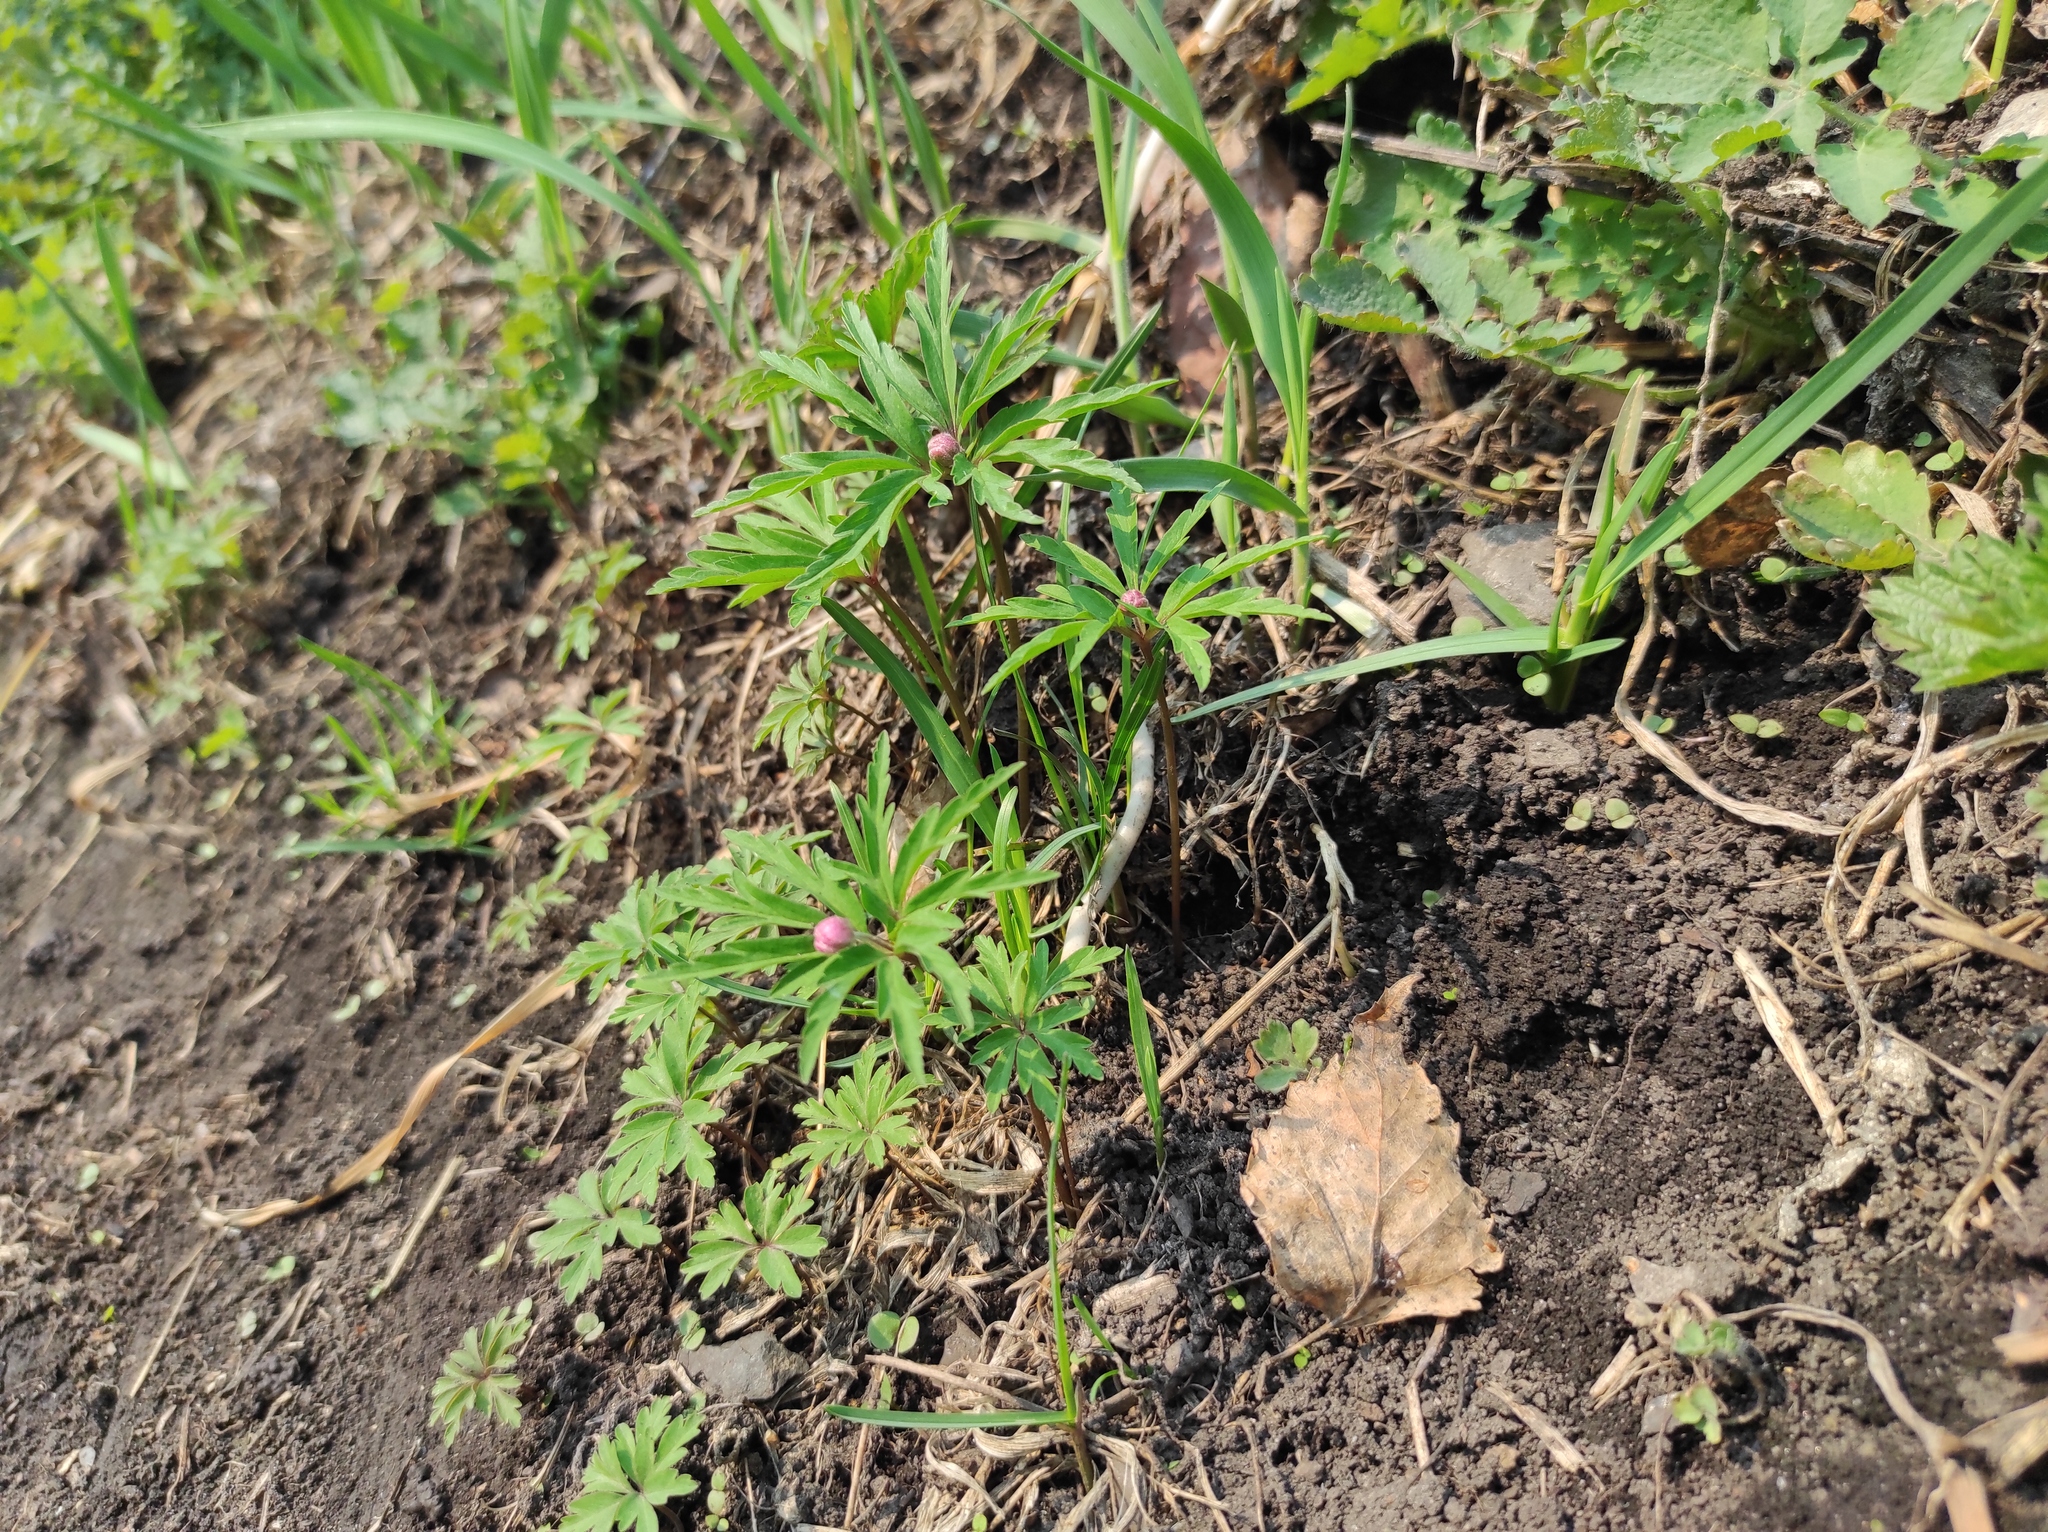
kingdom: Plantae
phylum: Tracheophyta
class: Magnoliopsida
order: Ranunculales
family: Ranunculaceae
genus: Anemone
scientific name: Anemone caerulea
